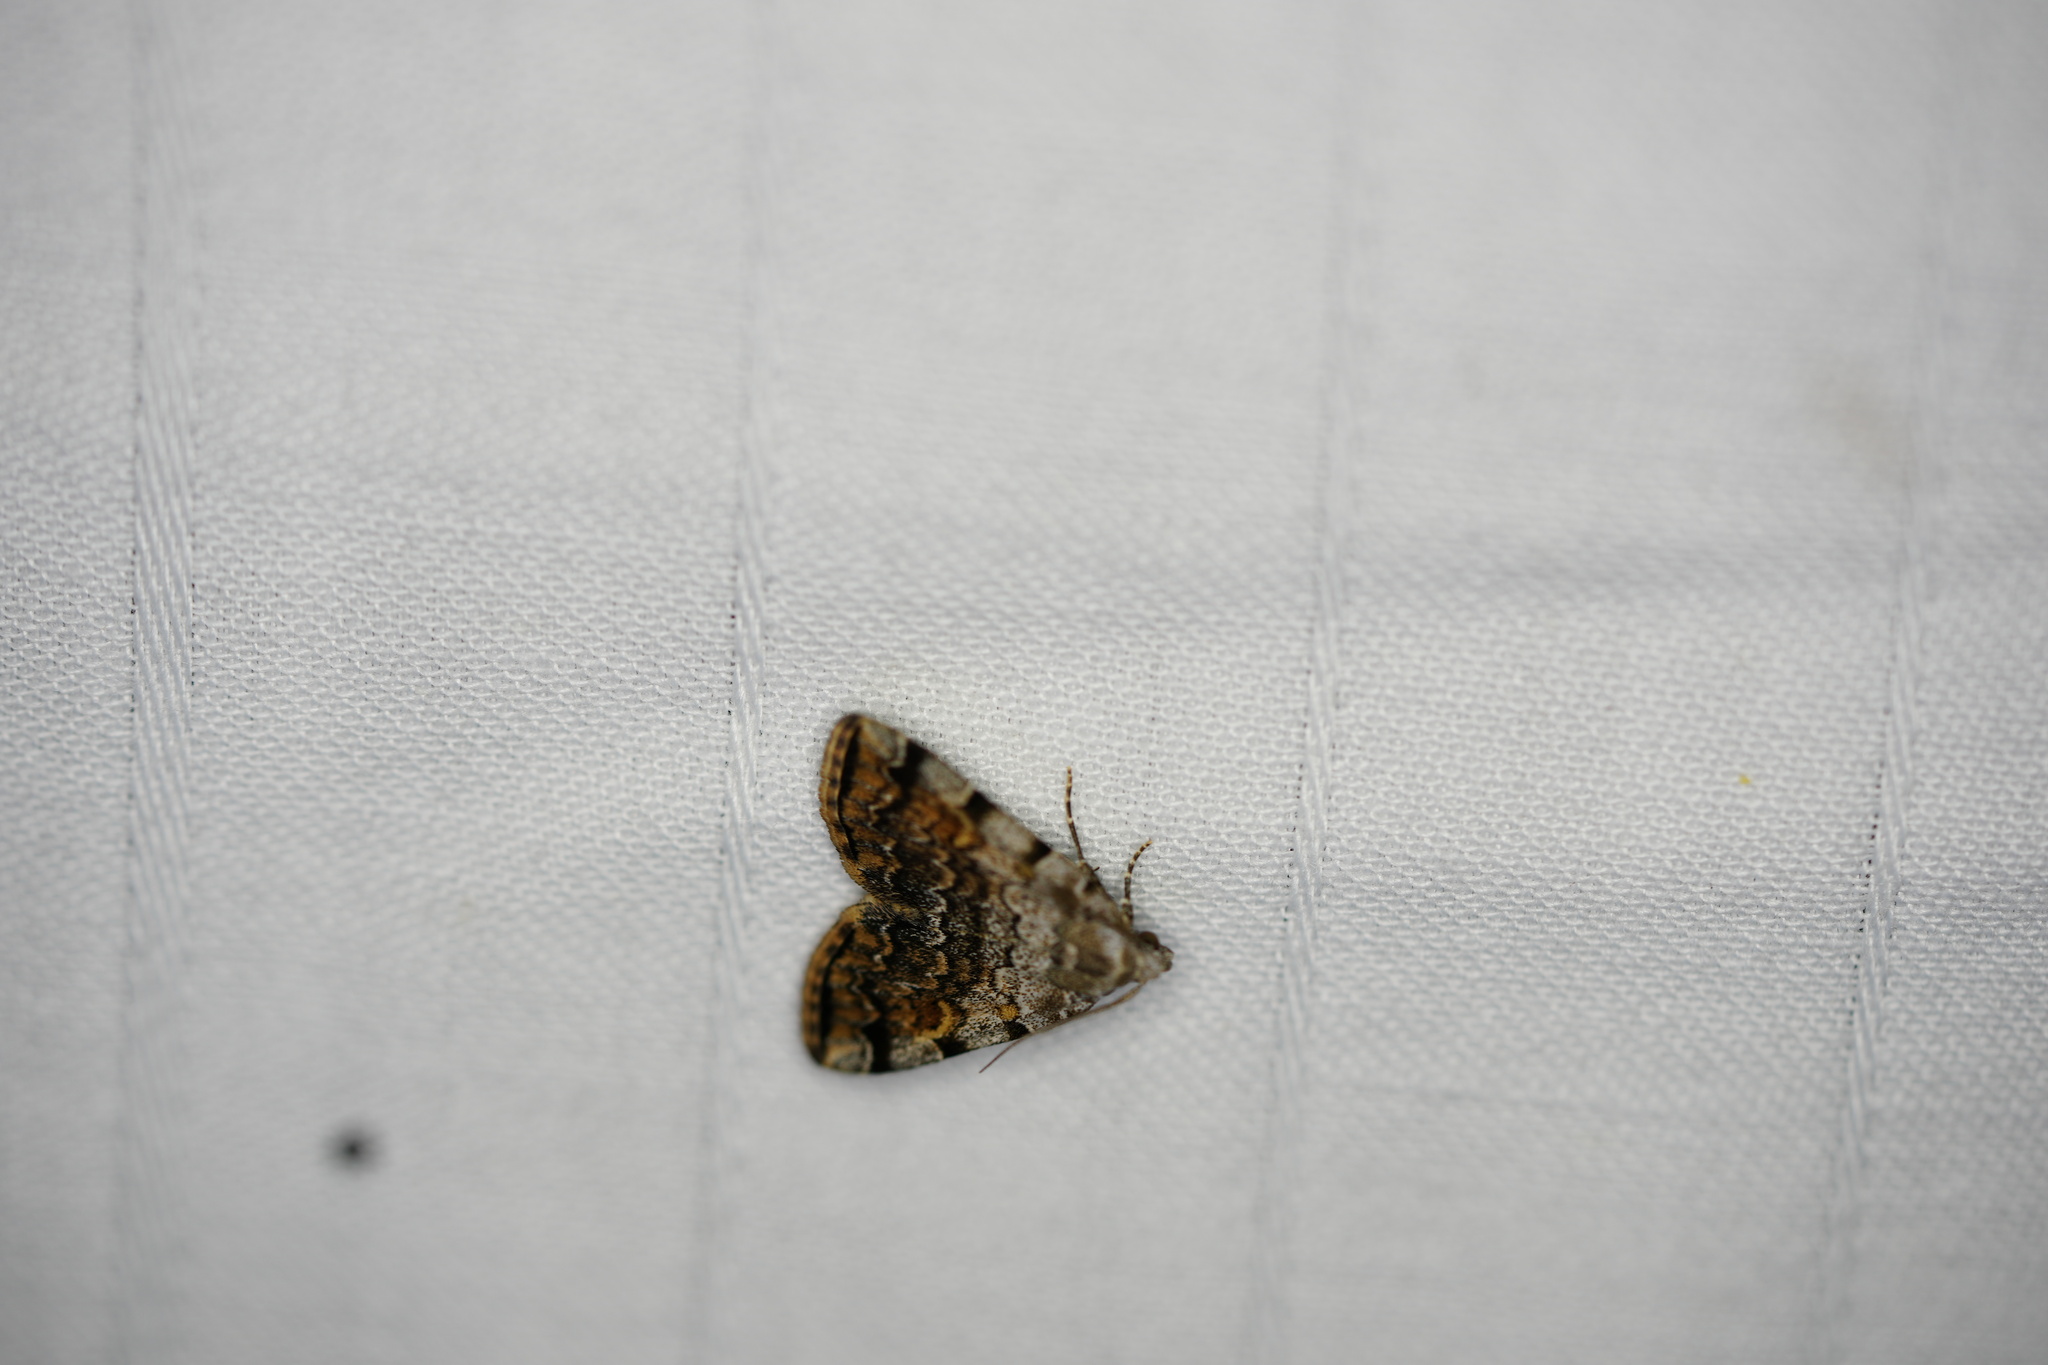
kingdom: Animalia
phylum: Arthropoda
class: Insecta
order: Lepidoptera
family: Erebidae
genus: Idia
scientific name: Idia americalis
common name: American idia moth
